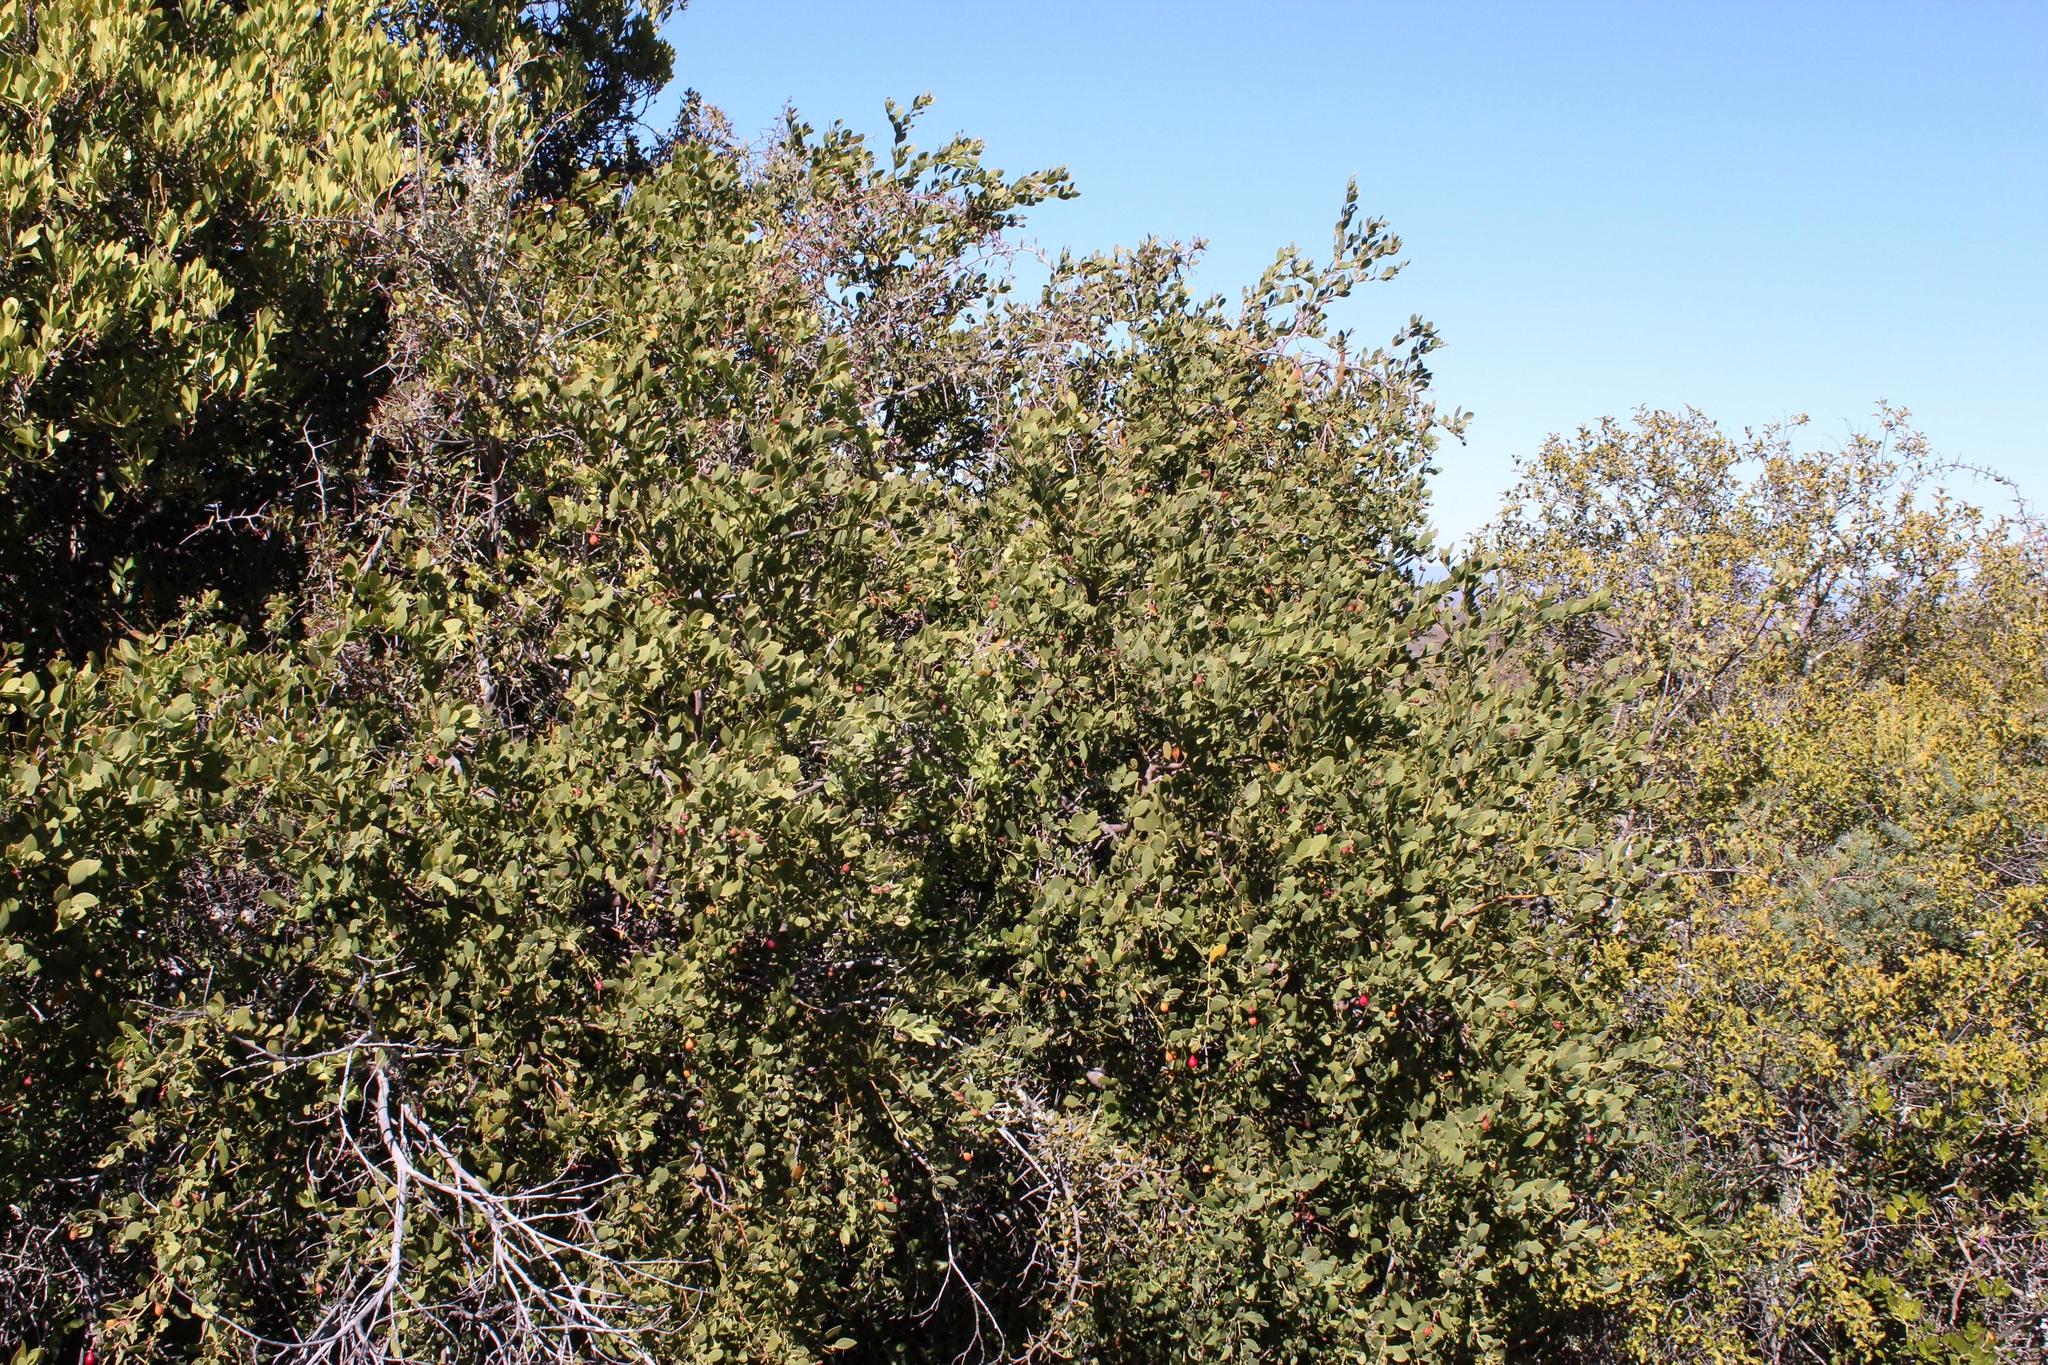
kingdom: Plantae
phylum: Tracheophyta
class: Magnoliopsida
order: Santalales
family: Santalaceae
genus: Osyris
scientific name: Osyris compressa
